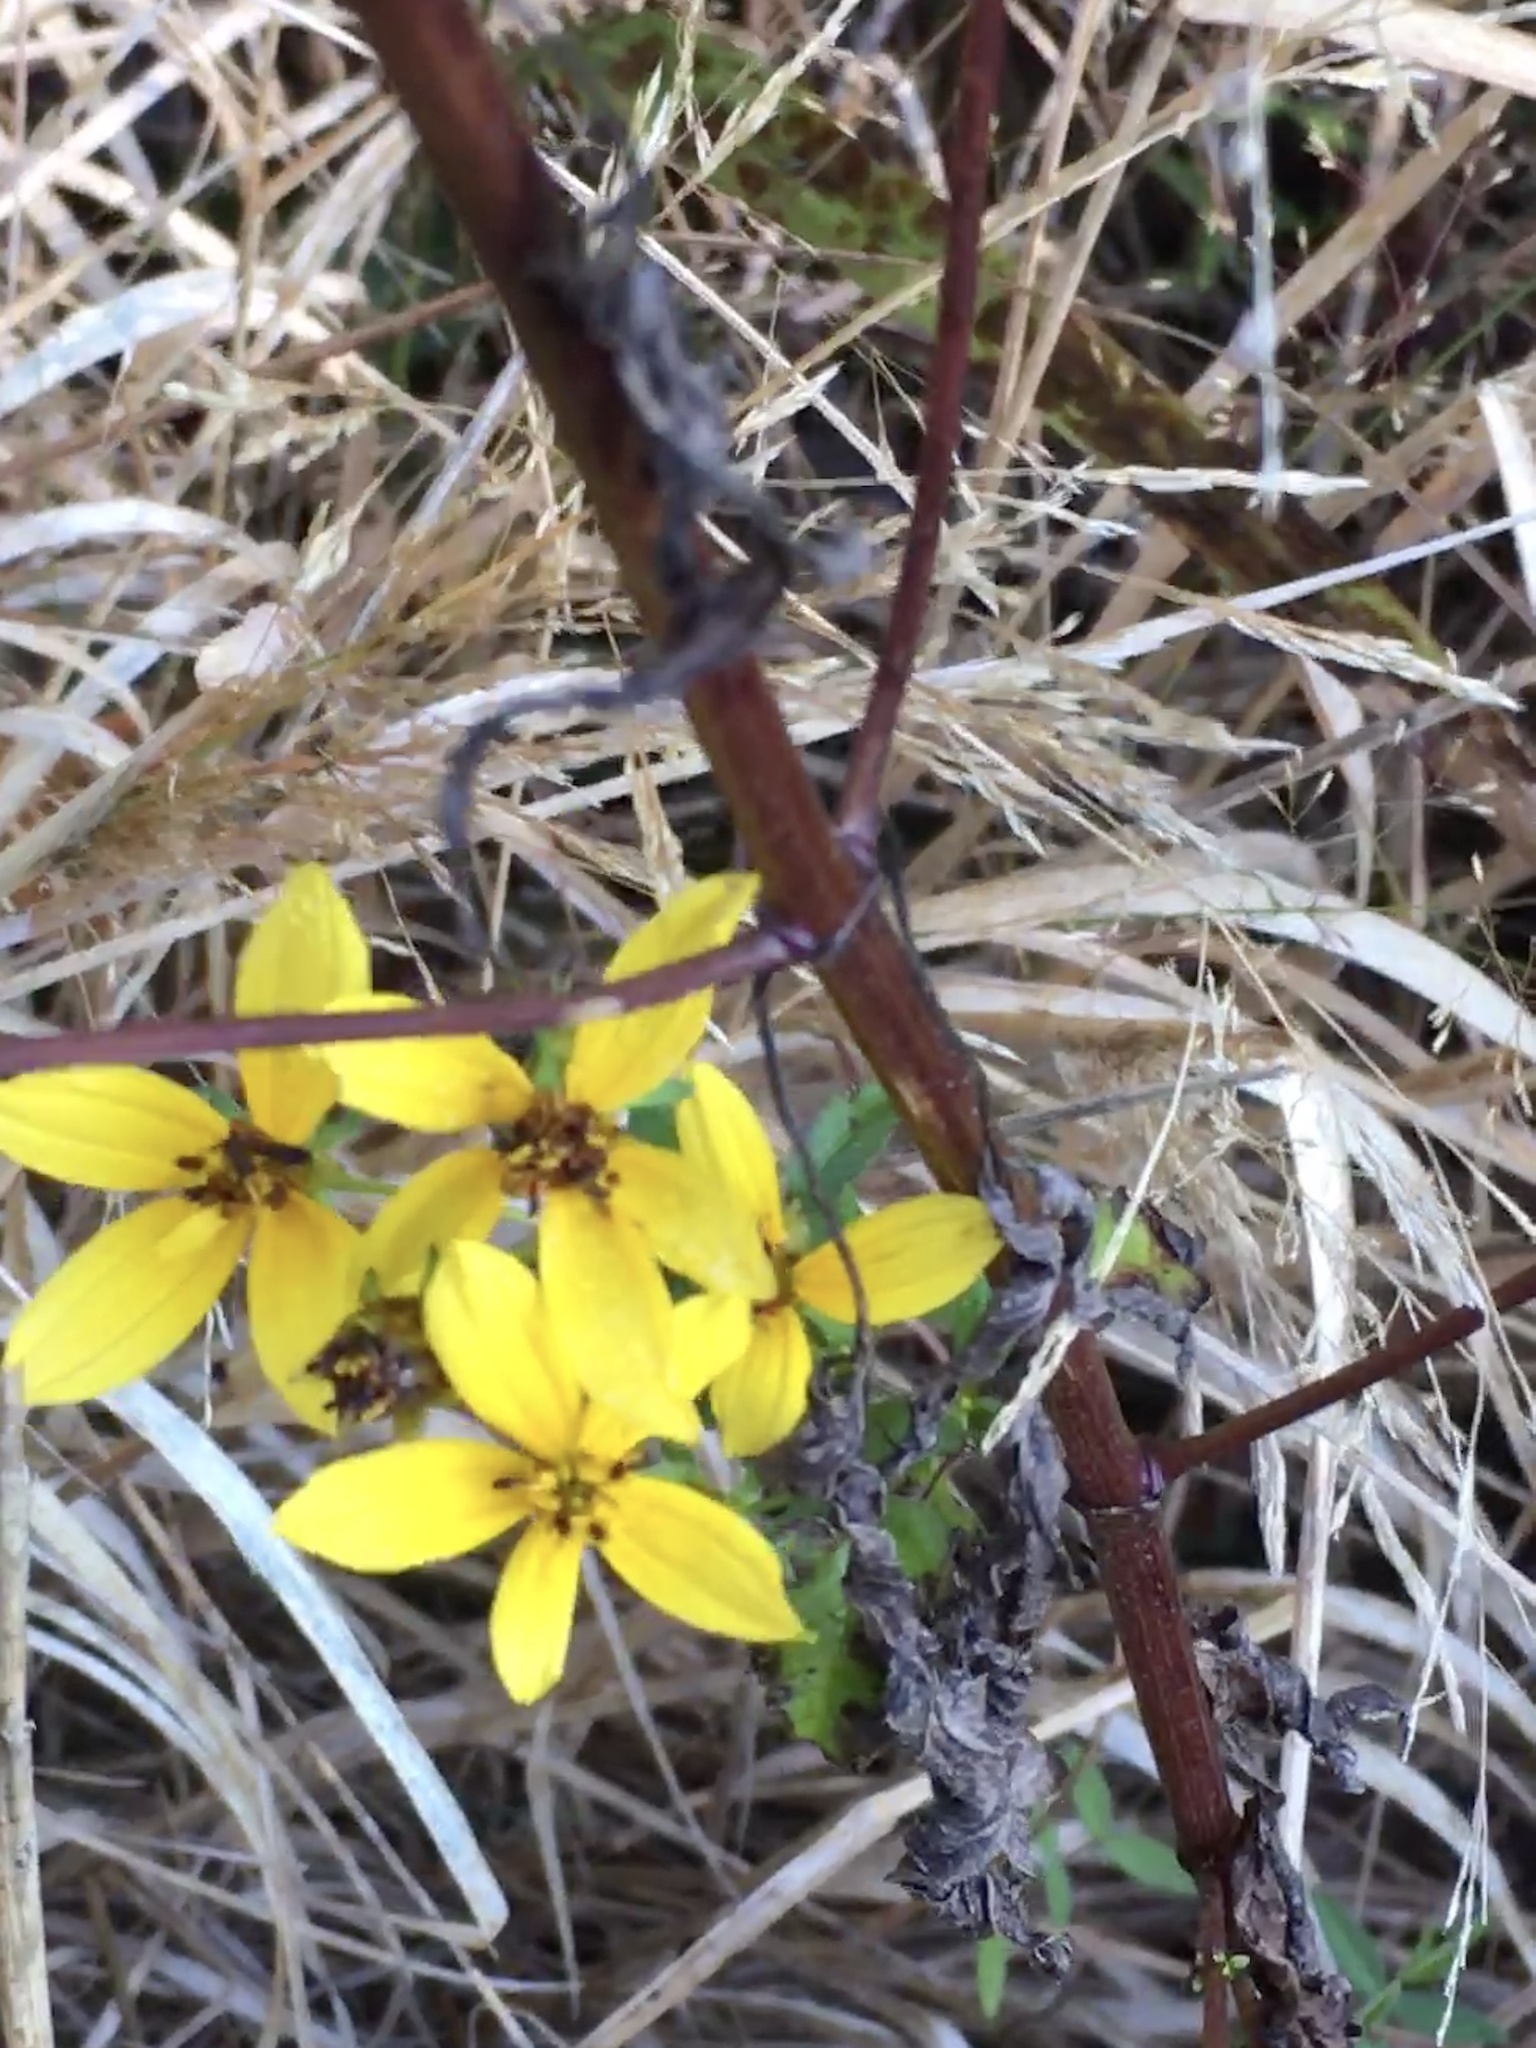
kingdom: Plantae
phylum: Tracheophyta
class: Magnoliopsida
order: Asterales
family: Asteraceae
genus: Bidens
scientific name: Bidens aristosa
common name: Western tickseed
